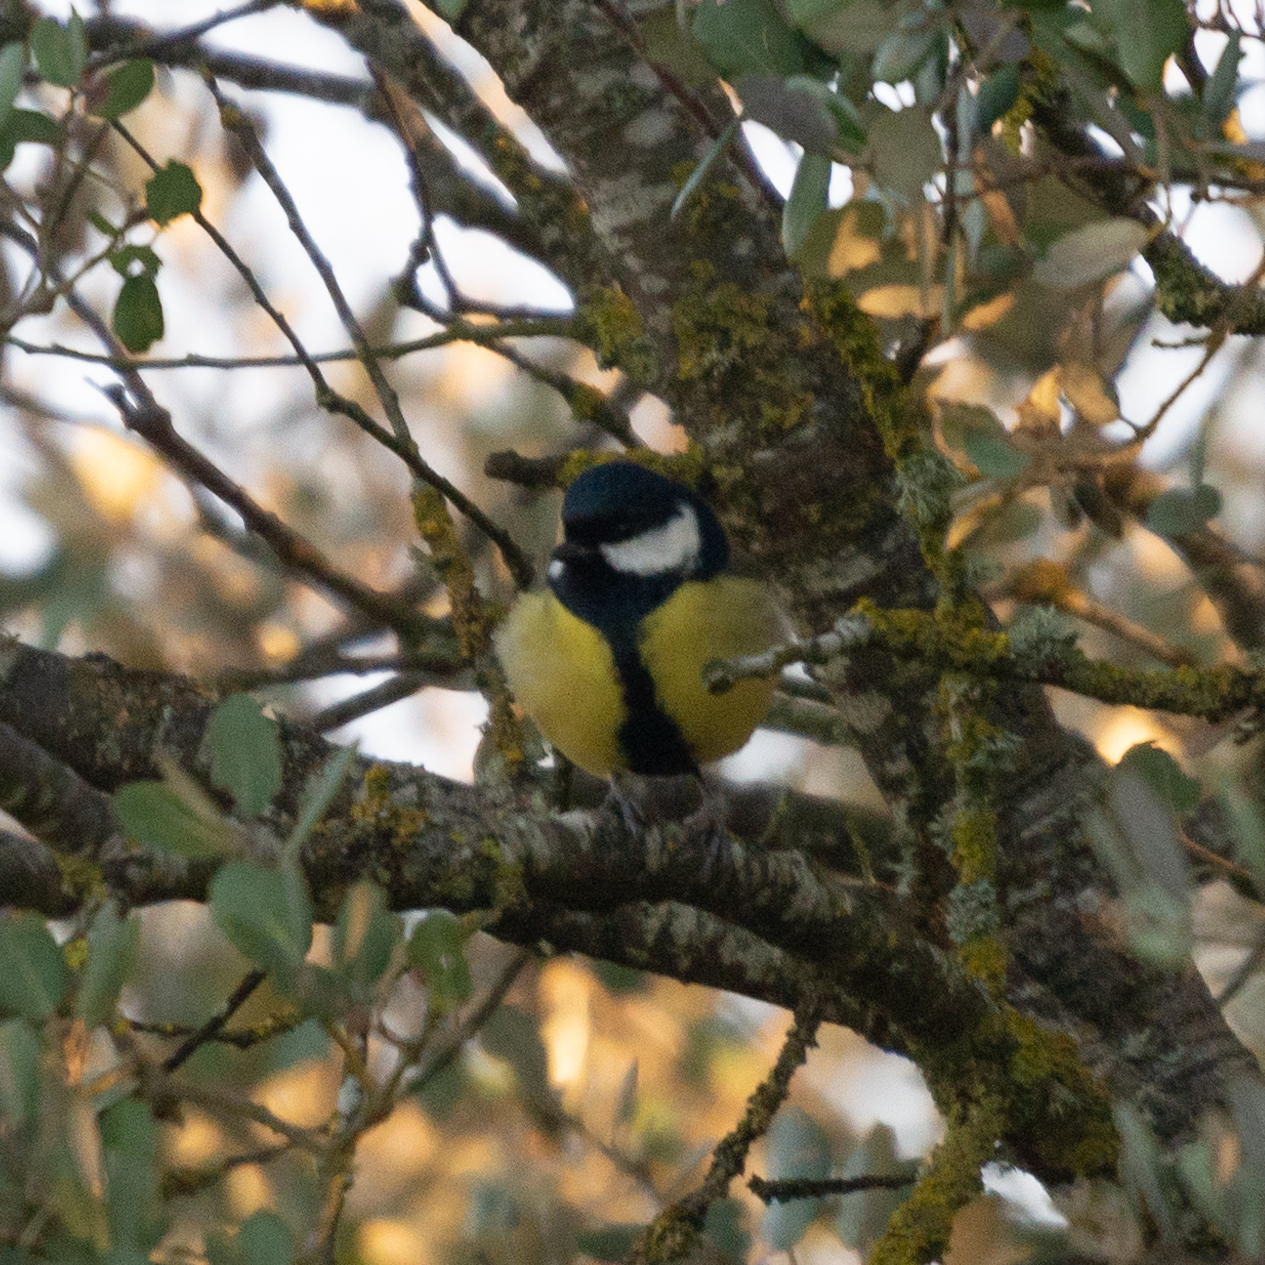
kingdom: Animalia
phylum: Chordata
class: Aves
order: Passeriformes
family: Paridae
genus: Parus
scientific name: Parus major
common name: Great tit
